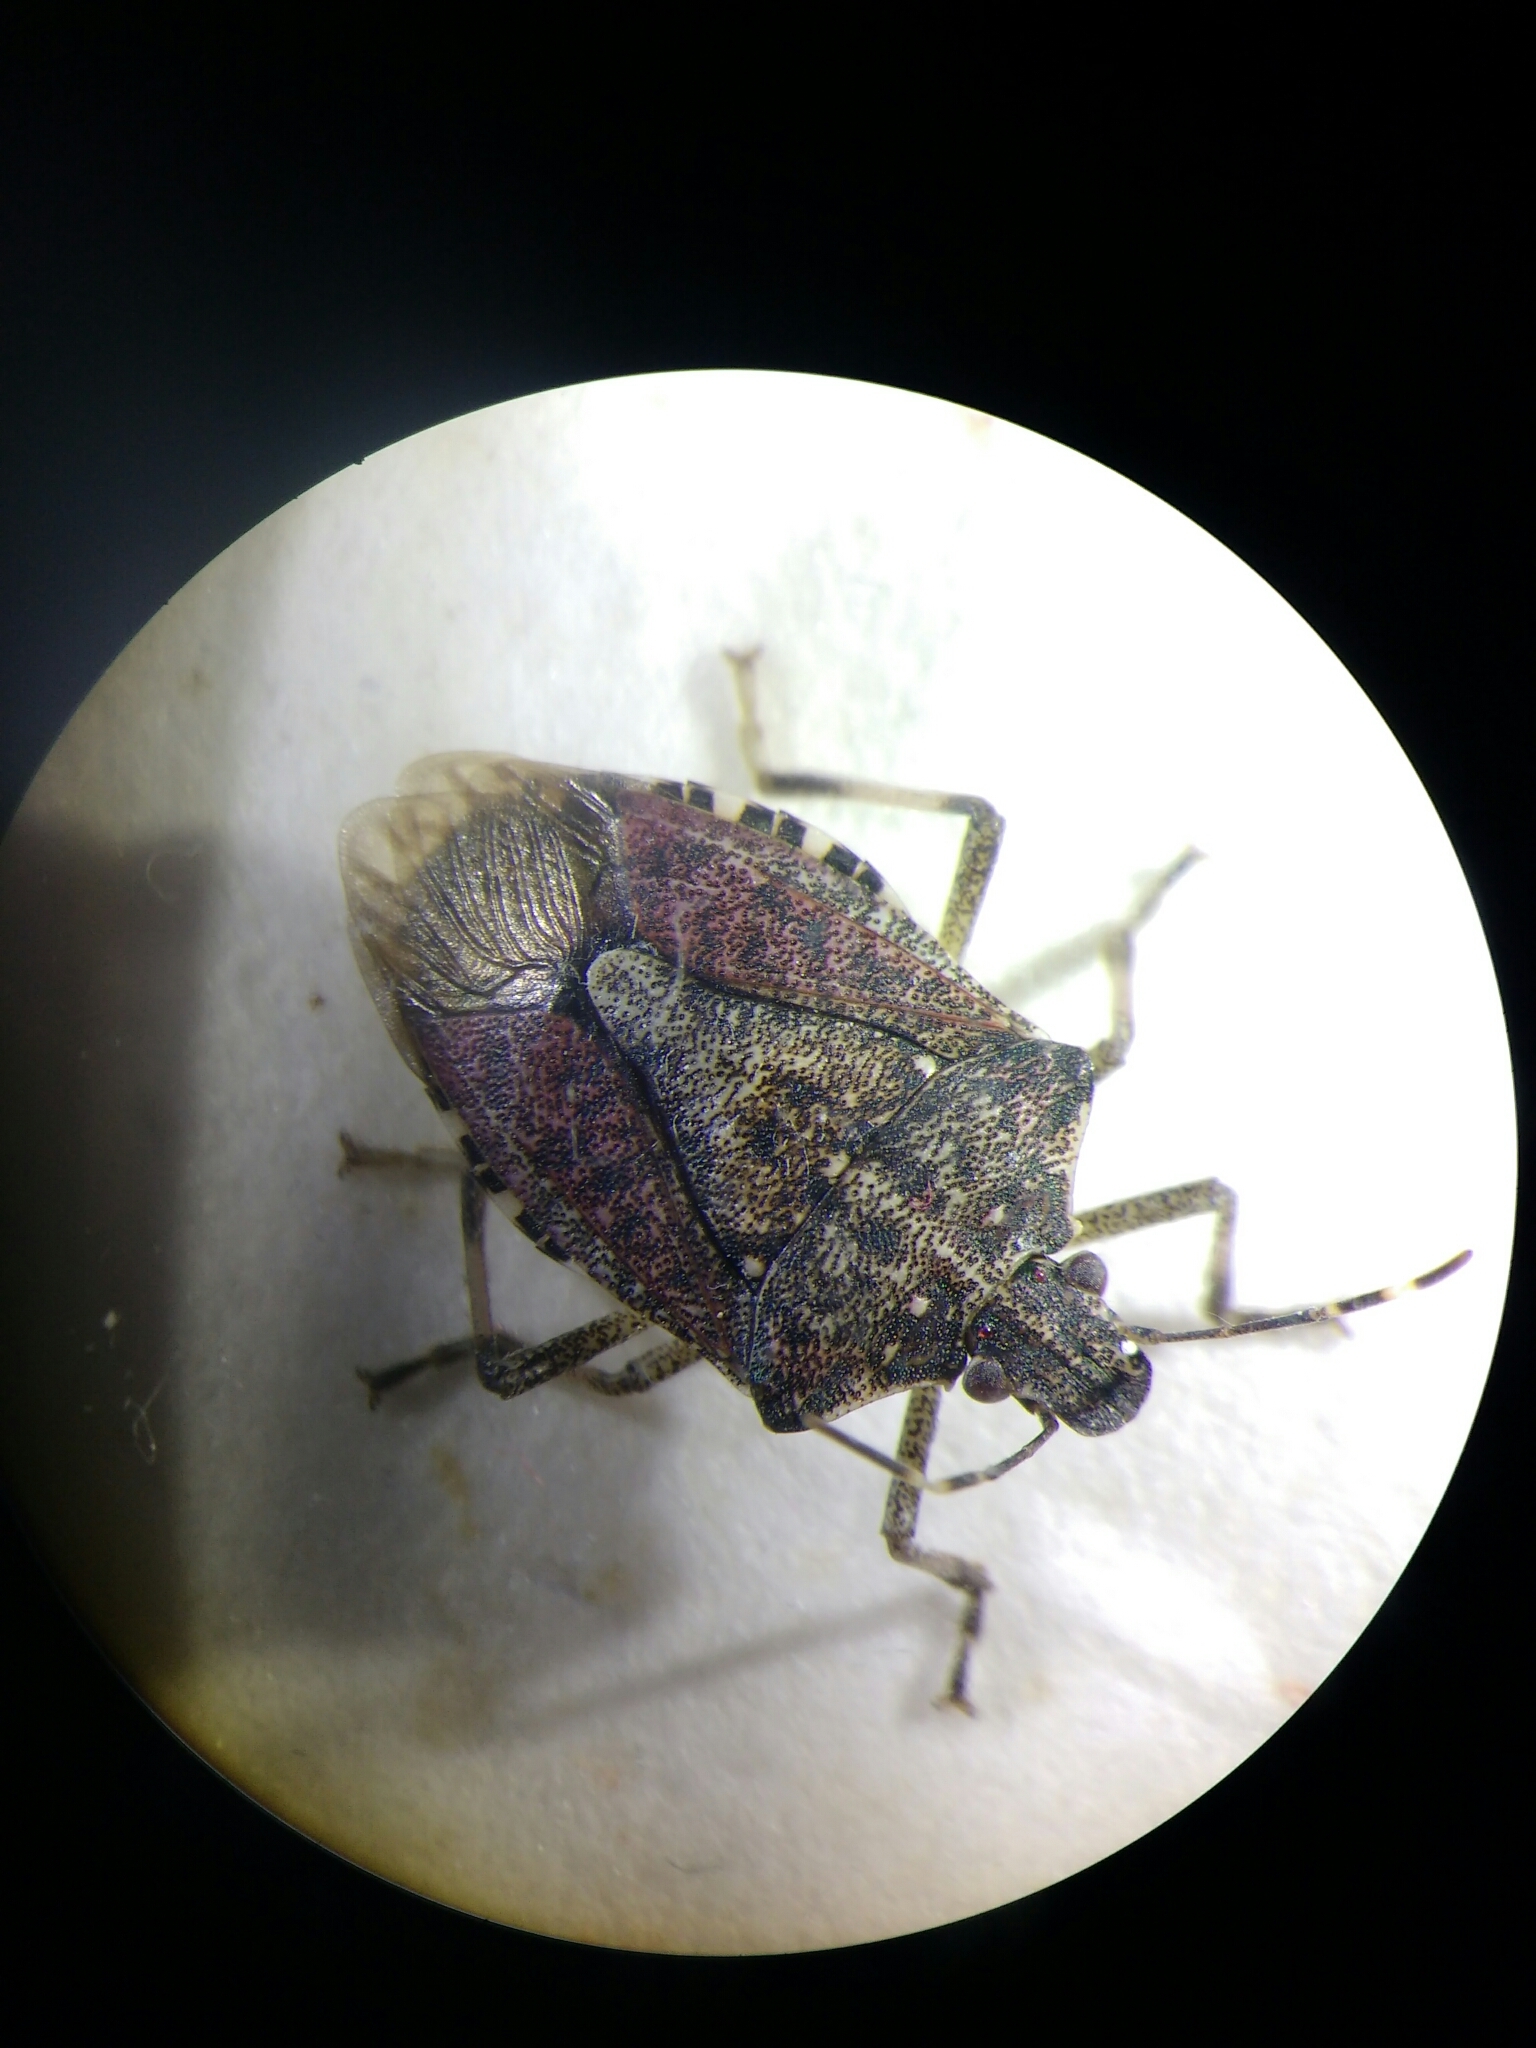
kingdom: Animalia
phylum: Arthropoda
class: Insecta
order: Hemiptera
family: Pentatomidae
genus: Halyomorpha
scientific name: Halyomorpha halys
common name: Brown marmorated stink bug
